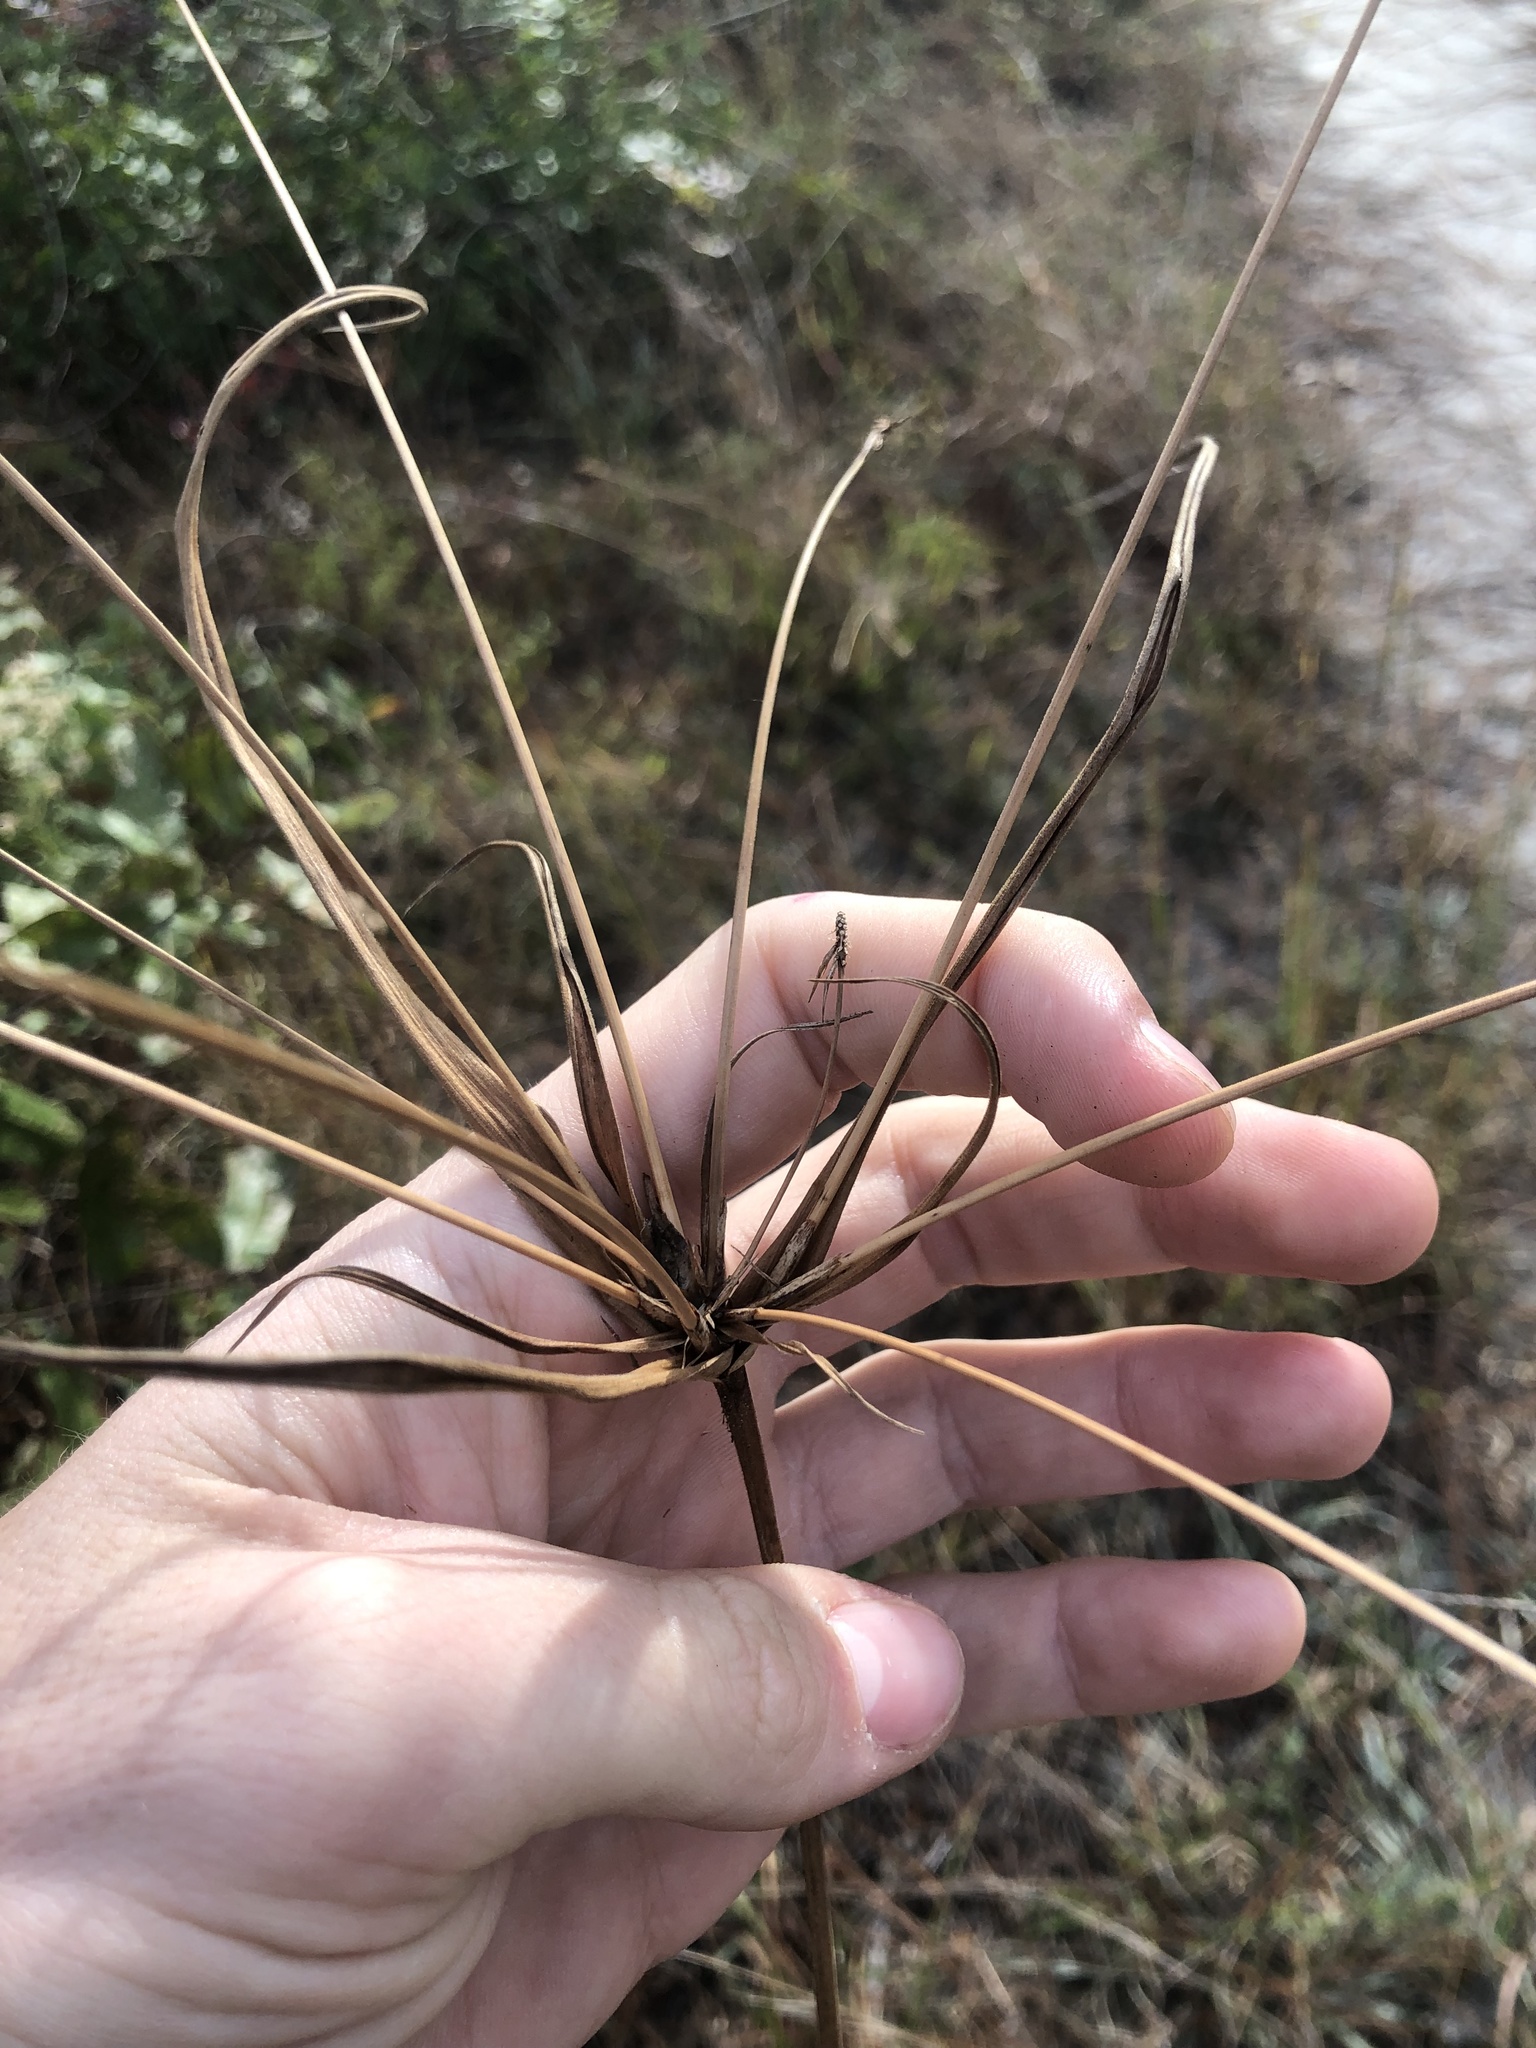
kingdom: Plantae
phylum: Tracheophyta
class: Liliopsida
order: Poales
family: Cyperaceae
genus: Cyperus
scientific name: Cyperus plukenetii
